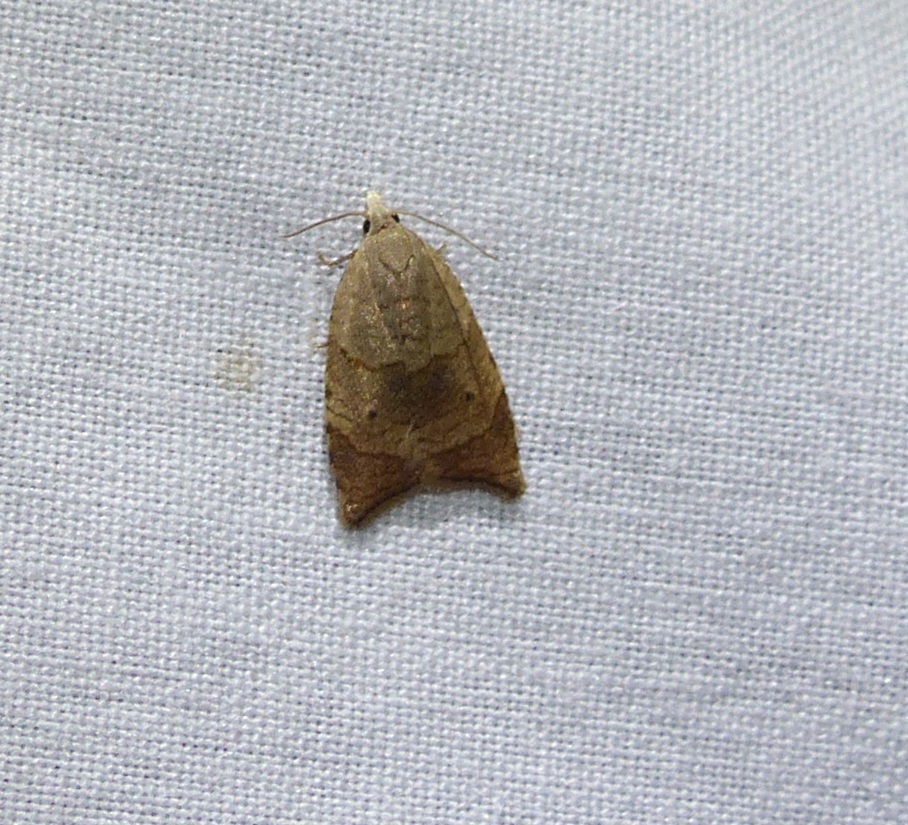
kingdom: Animalia
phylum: Arthropoda
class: Insecta
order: Lepidoptera
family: Tortricidae
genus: Coelostathma
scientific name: Coelostathma discopunctana
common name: Batman moth
